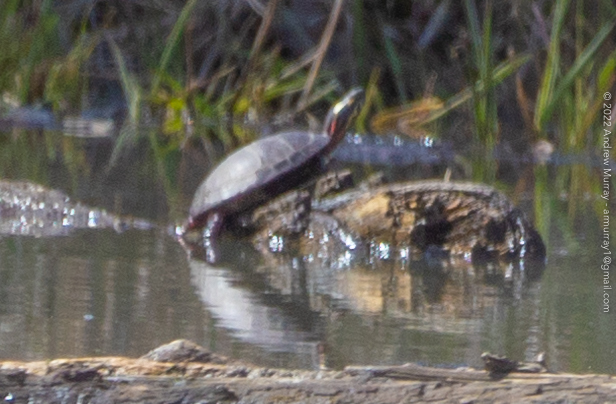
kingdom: Animalia
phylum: Chordata
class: Testudines
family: Emydidae
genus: Chrysemys
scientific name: Chrysemys picta
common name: Painted turtle
